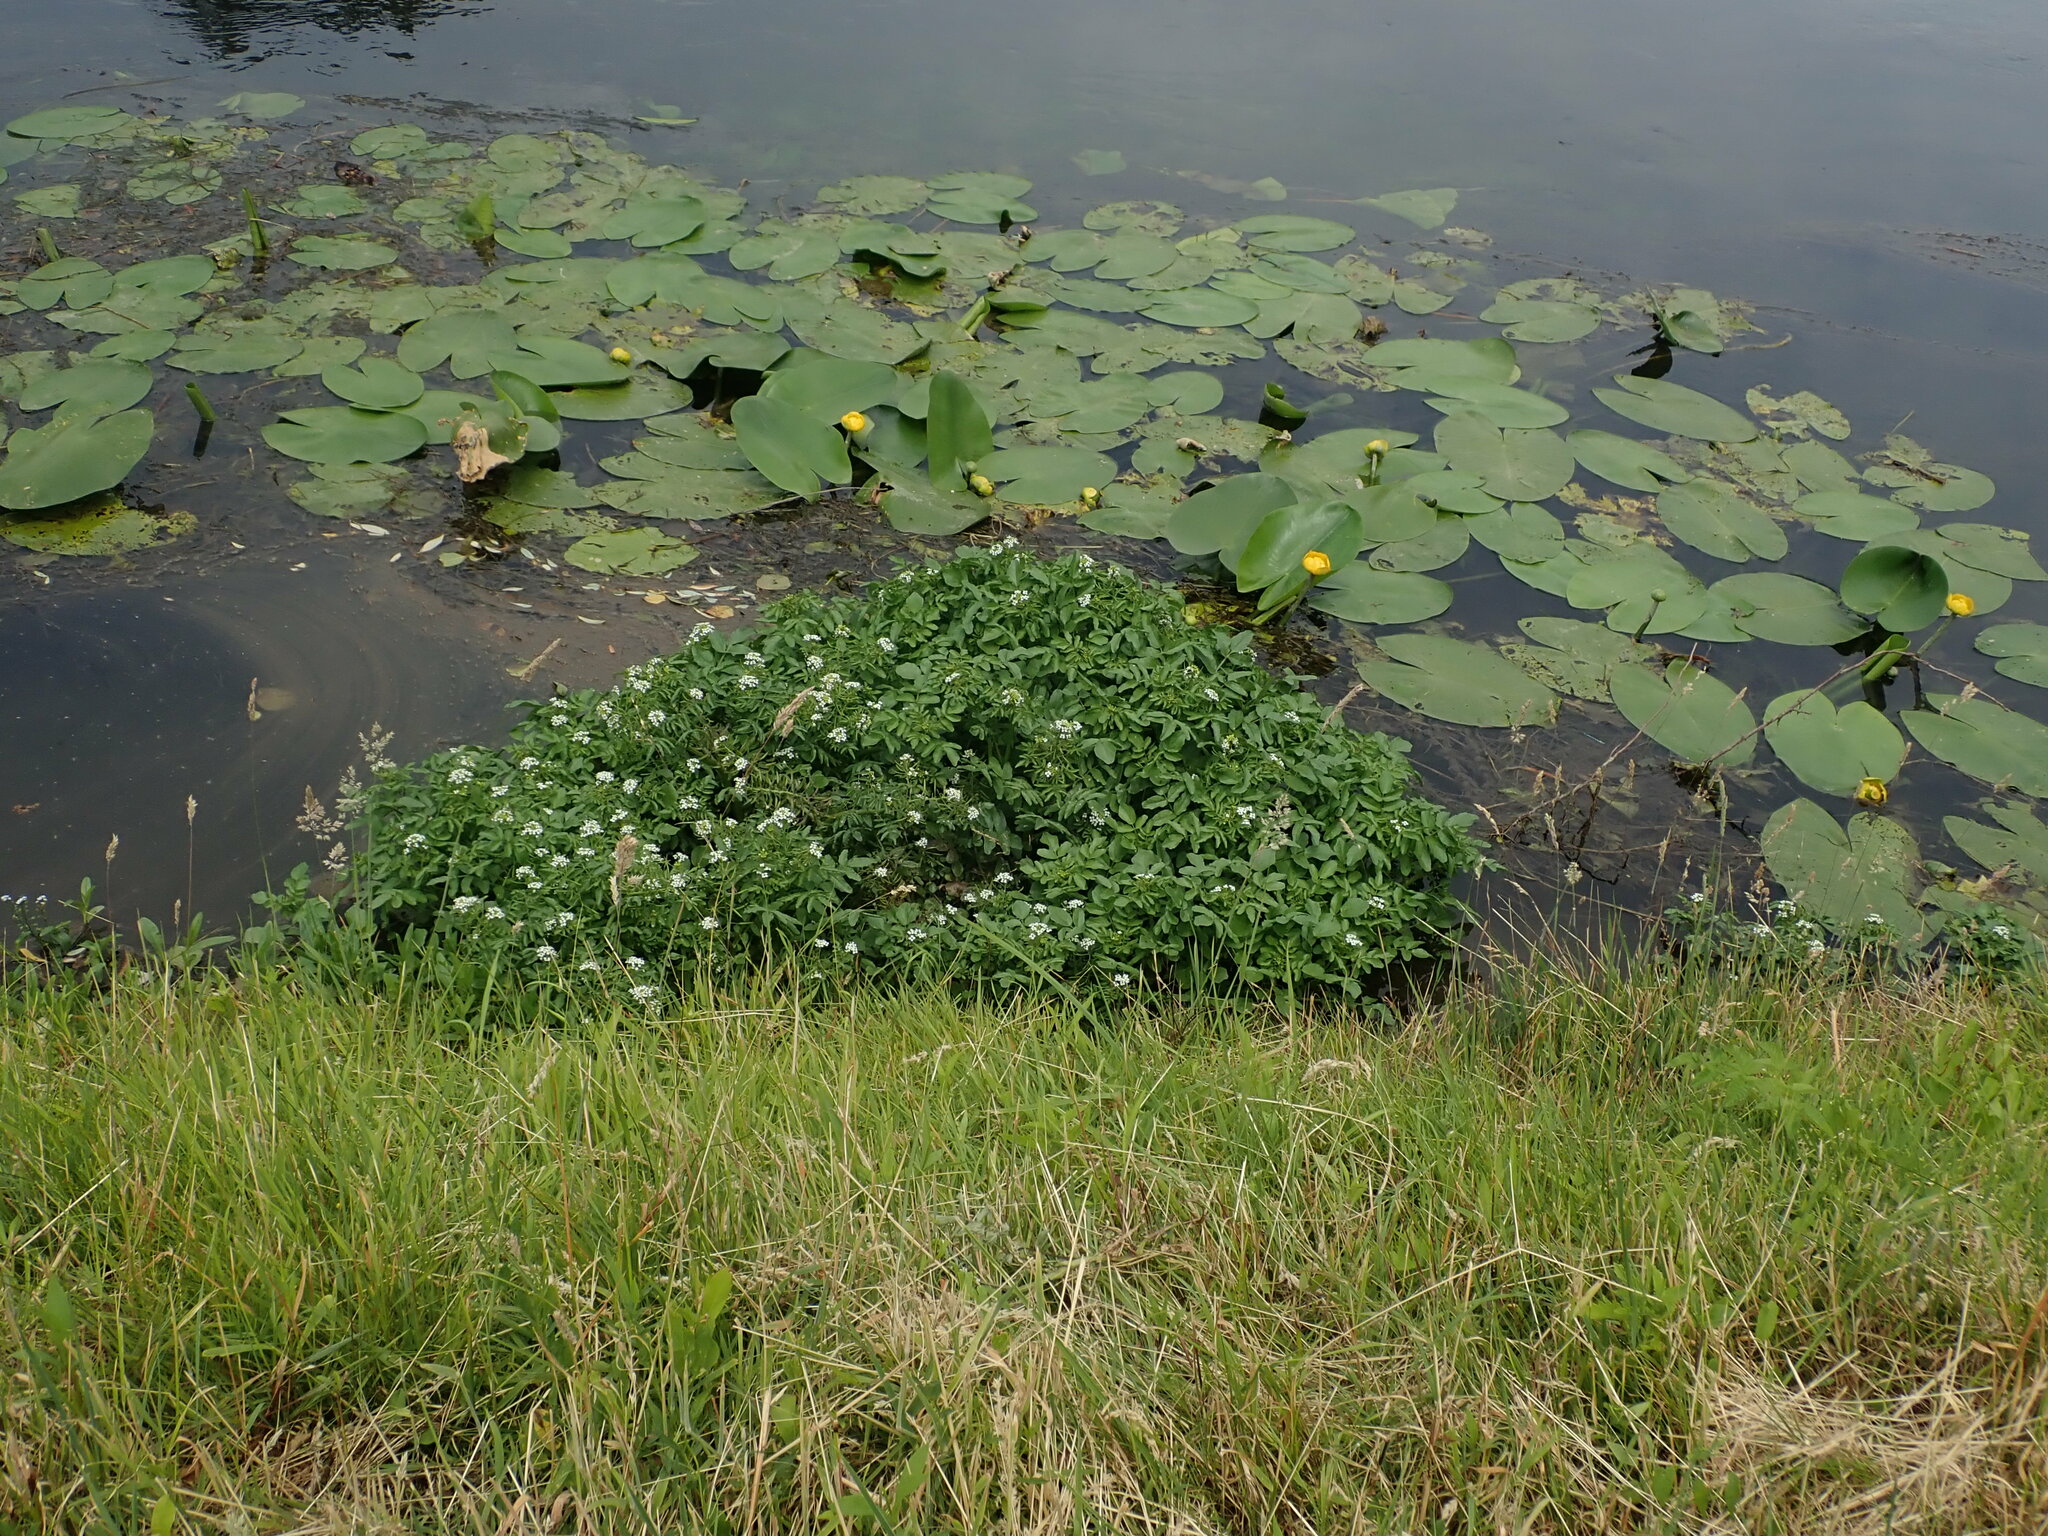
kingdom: Plantae
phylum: Tracheophyta
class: Magnoliopsida
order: Brassicales
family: Brassicaceae
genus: Nasturtium
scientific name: Nasturtium officinale
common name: Watercress
